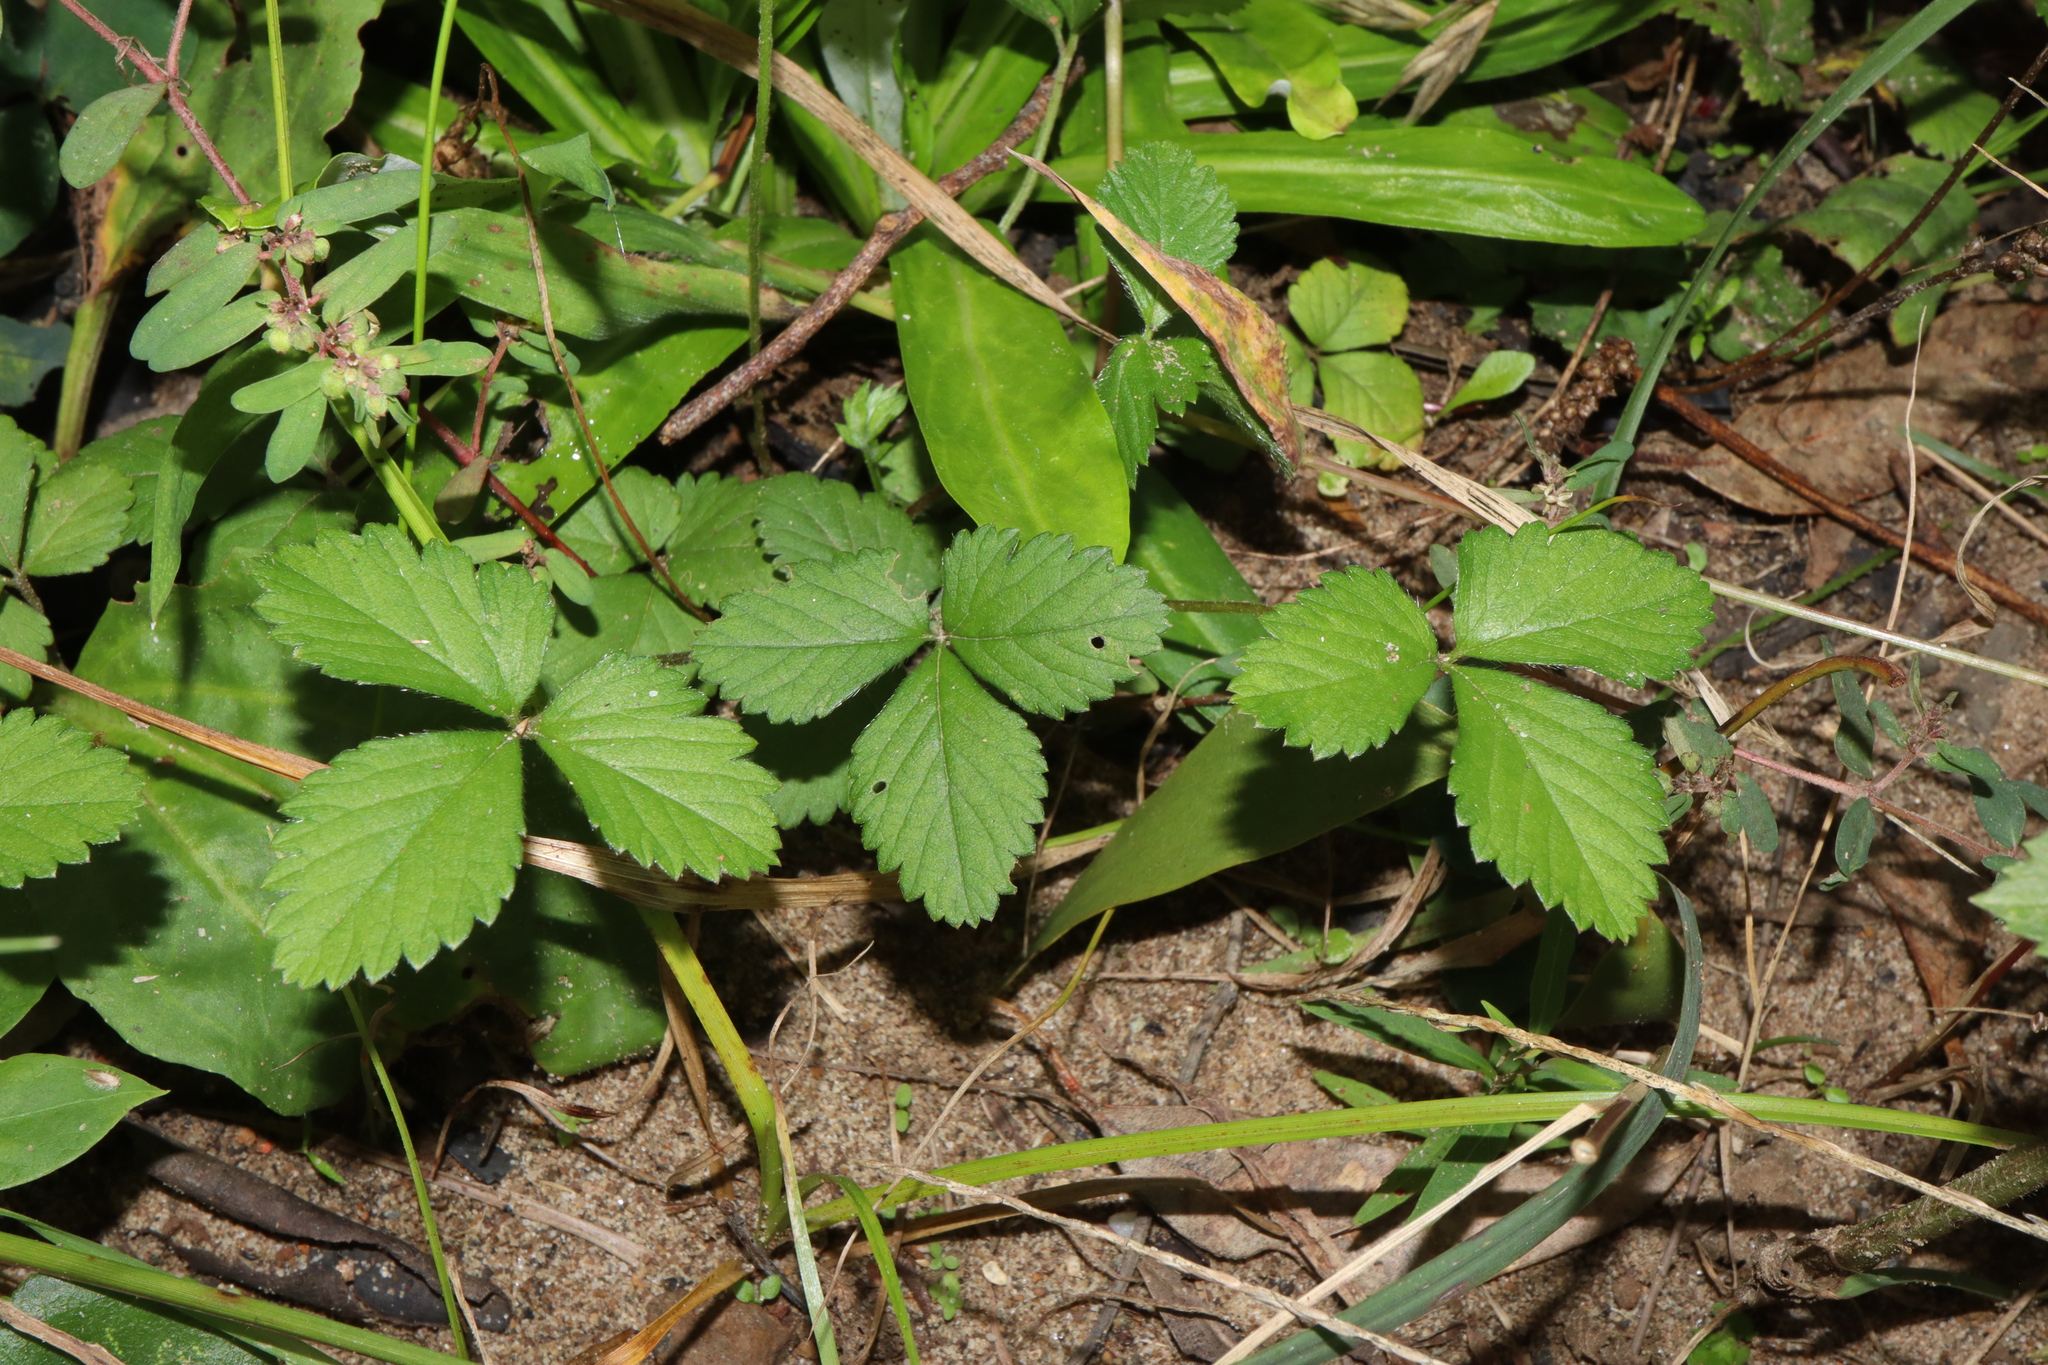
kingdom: Plantae
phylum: Tracheophyta
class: Magnoliopsida
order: Rosales
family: Rosaceae
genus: Potentilla
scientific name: Potentilla indica
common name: Yellow-flowered strawberry
